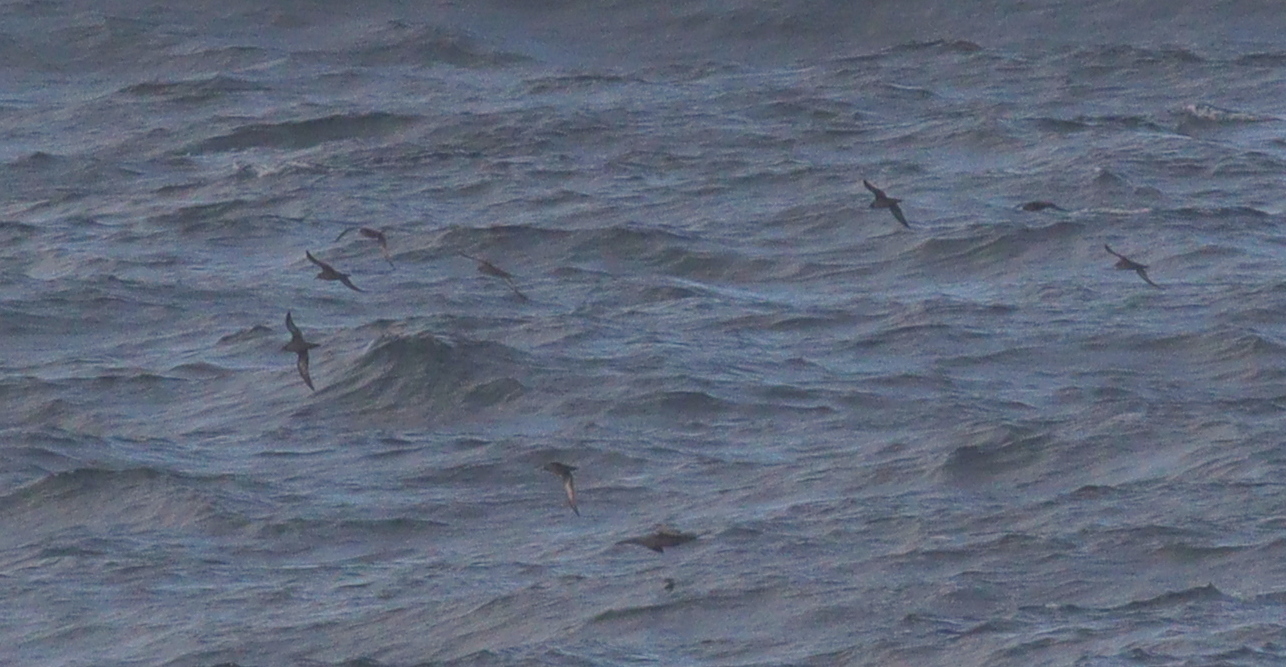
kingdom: Animalia
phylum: Chordata
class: Aves
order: Procellariiformes
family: Procellariidae
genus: Puffinus
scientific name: Puffinus griseus
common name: Sooty shearwater
